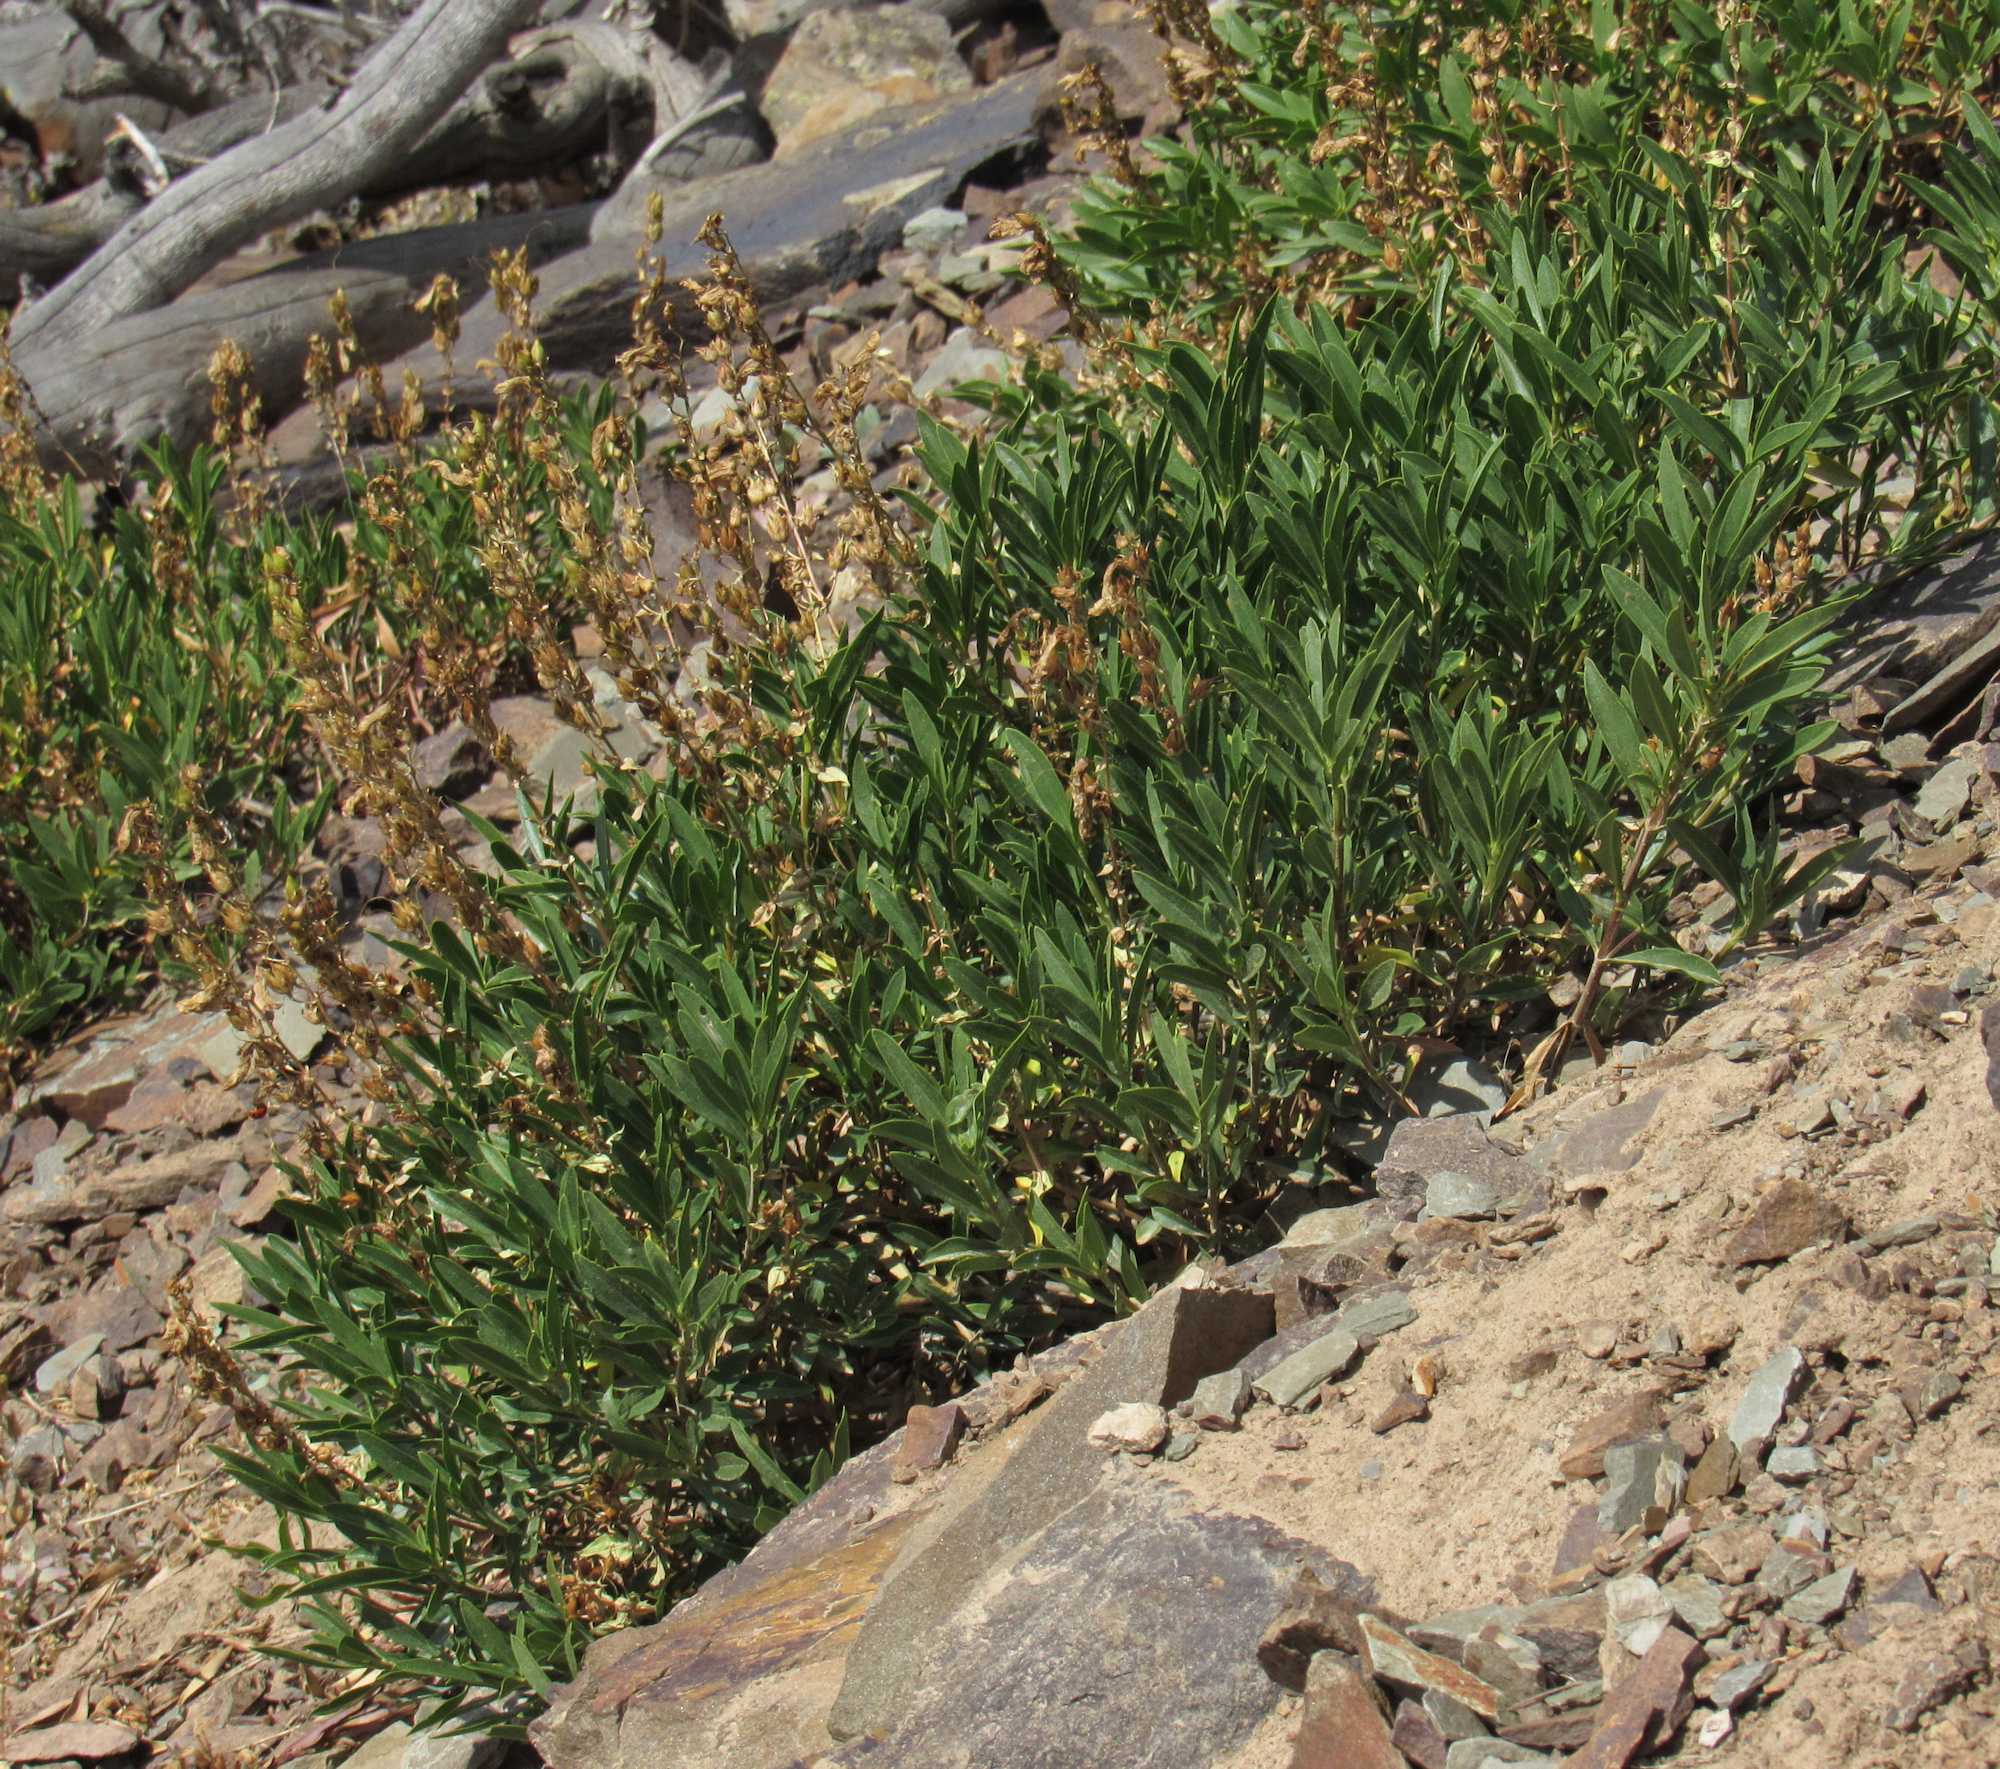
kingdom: Plantae
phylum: Tracheophyta
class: Magnoliopsida
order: Lamiales
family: Plantaginaceae
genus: Penstemon
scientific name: Penstemon fruticosus
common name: Bush penstemon
